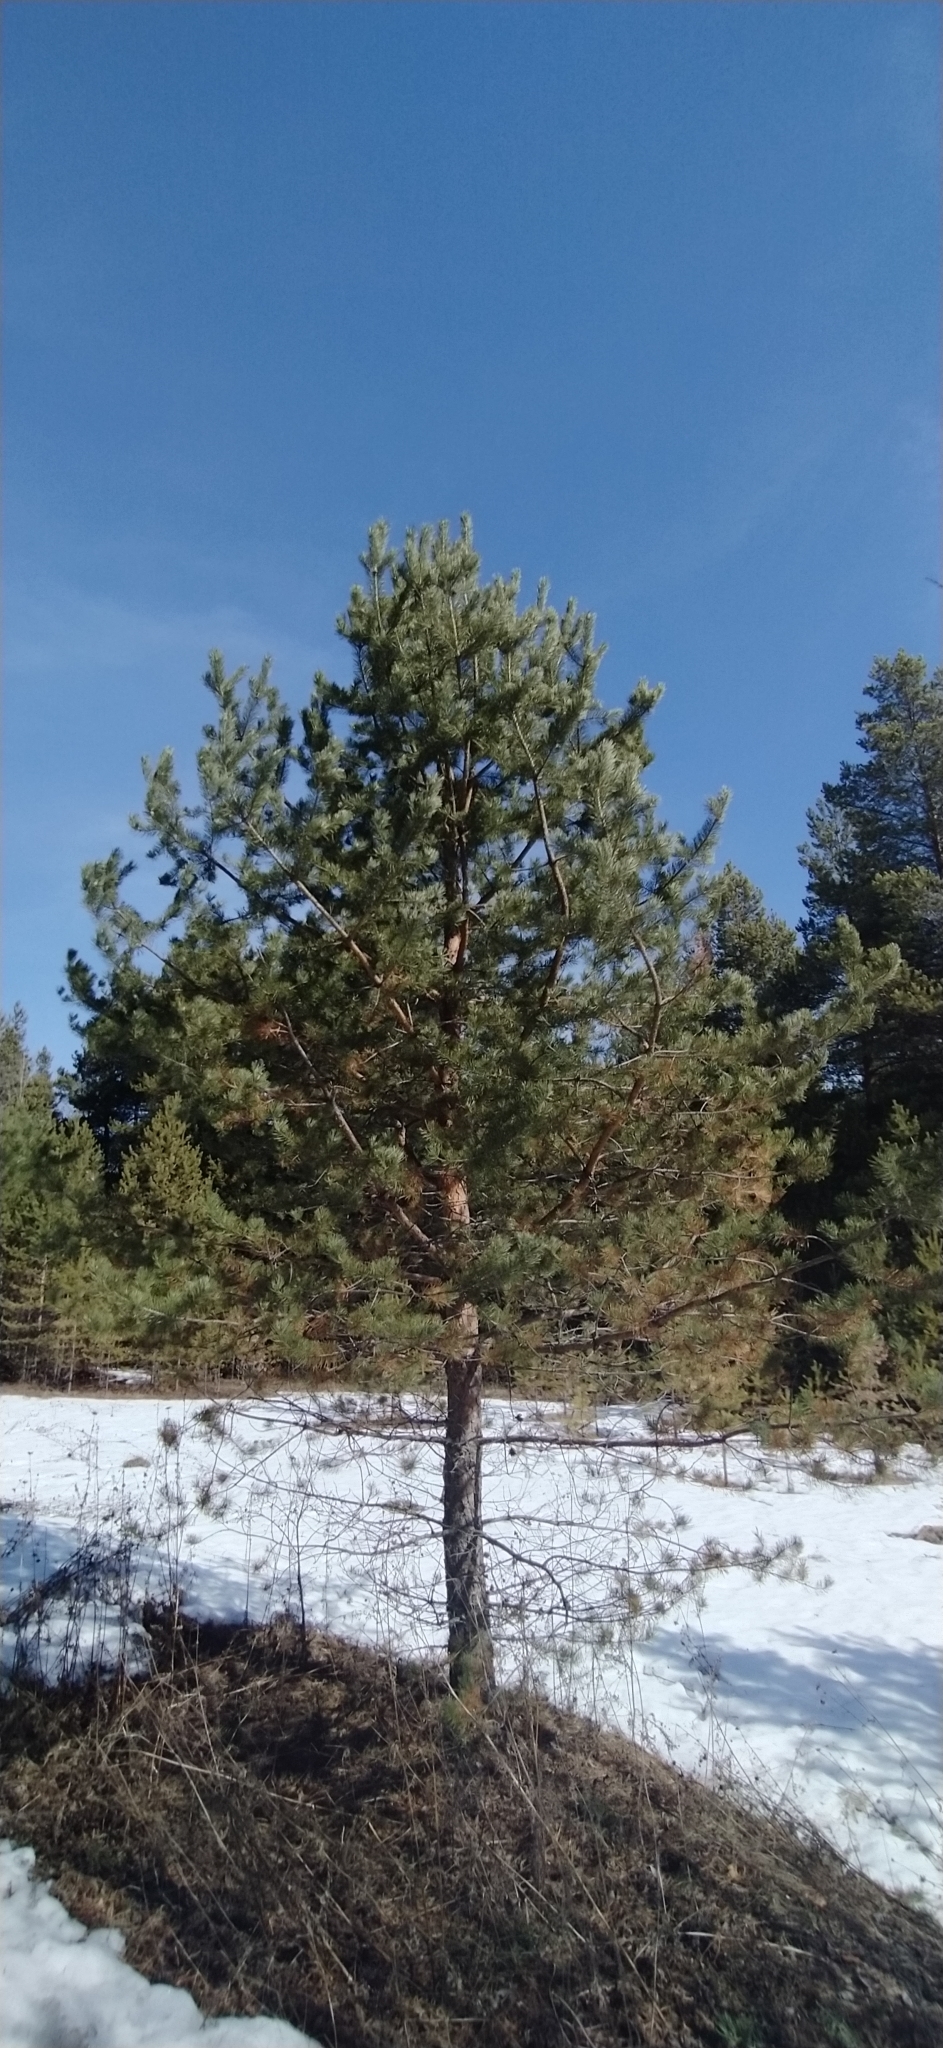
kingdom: Plantae
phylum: Tracheophyta
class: Pinopsida
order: Pinales
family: Pinaceae
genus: Pinus
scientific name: Pinus sylvestris
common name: Scots pine
